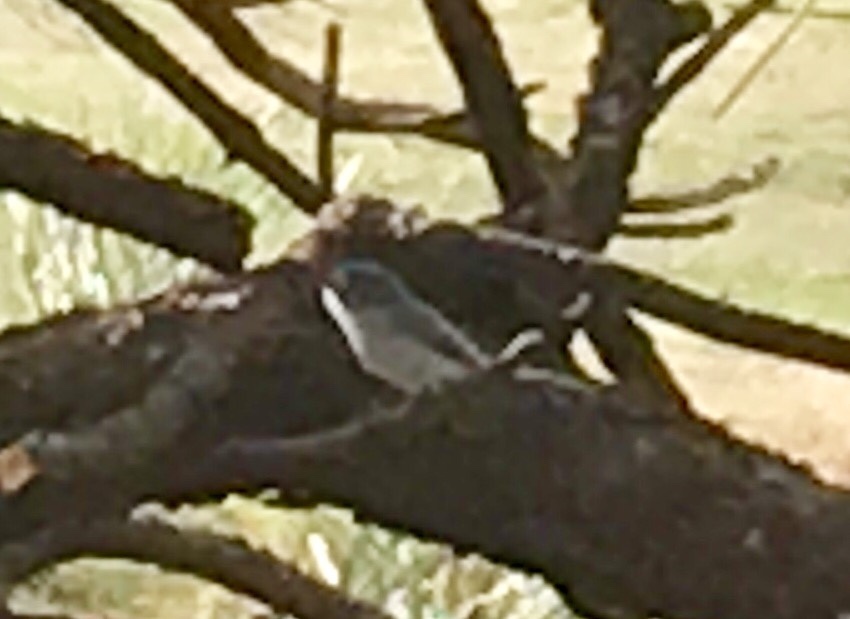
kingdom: Animalia
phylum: Chordata
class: Aves
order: Passeriformes
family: Polioptilidae
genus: Polioptila
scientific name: Polioptila caerulea
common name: Blue-gray gnatcatcher
